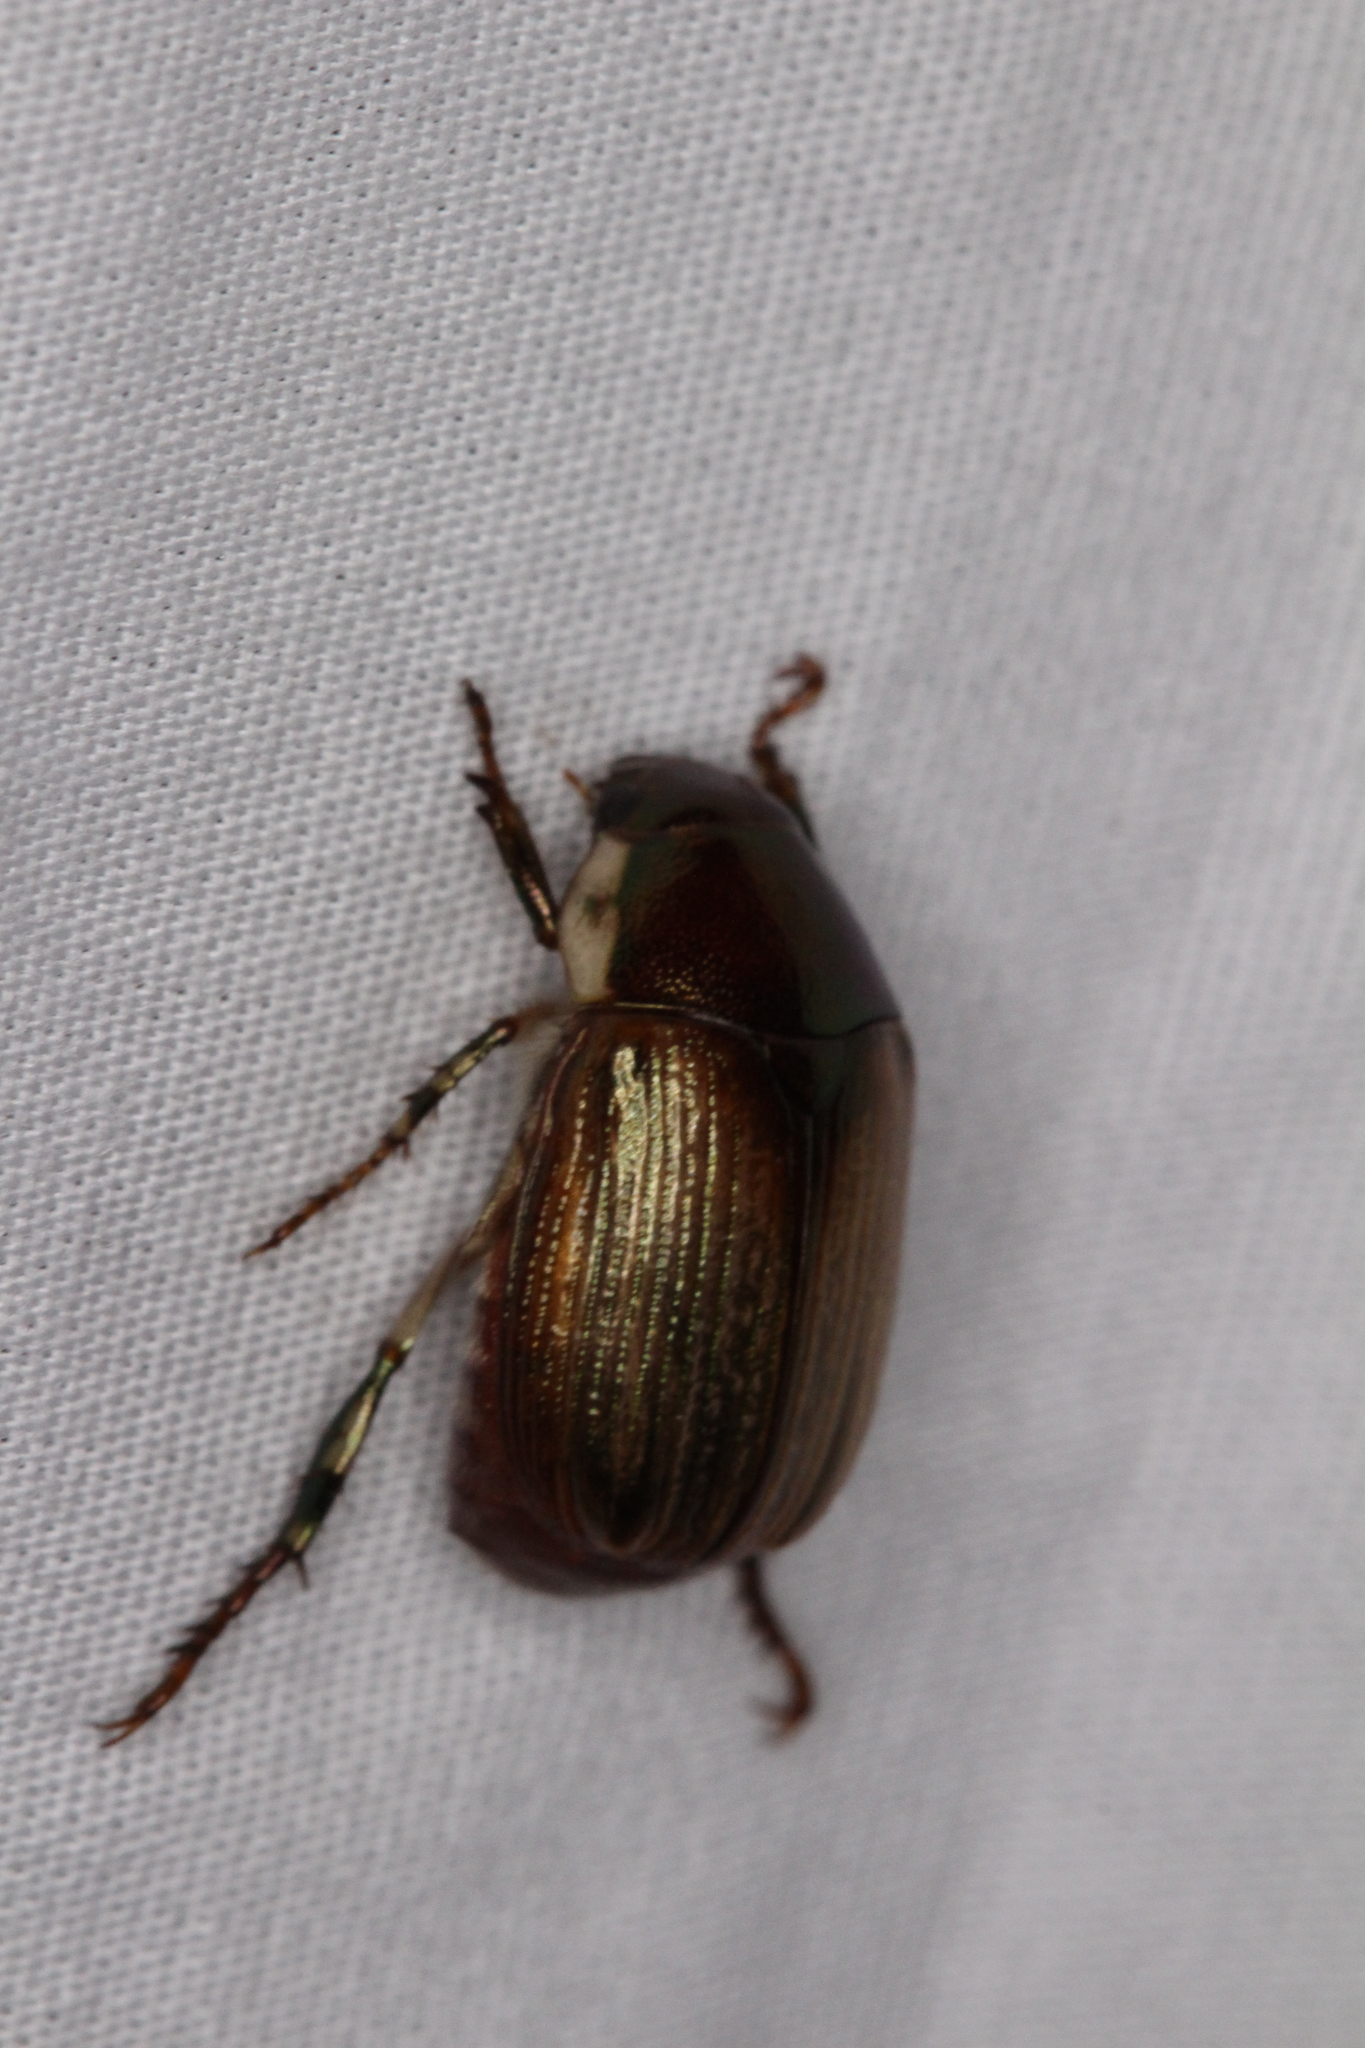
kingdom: Animalia
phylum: Arthropoda
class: Insecta
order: Coleoptera
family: Scarabaeidae
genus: Callistethus
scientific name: Callistethus marginatus
